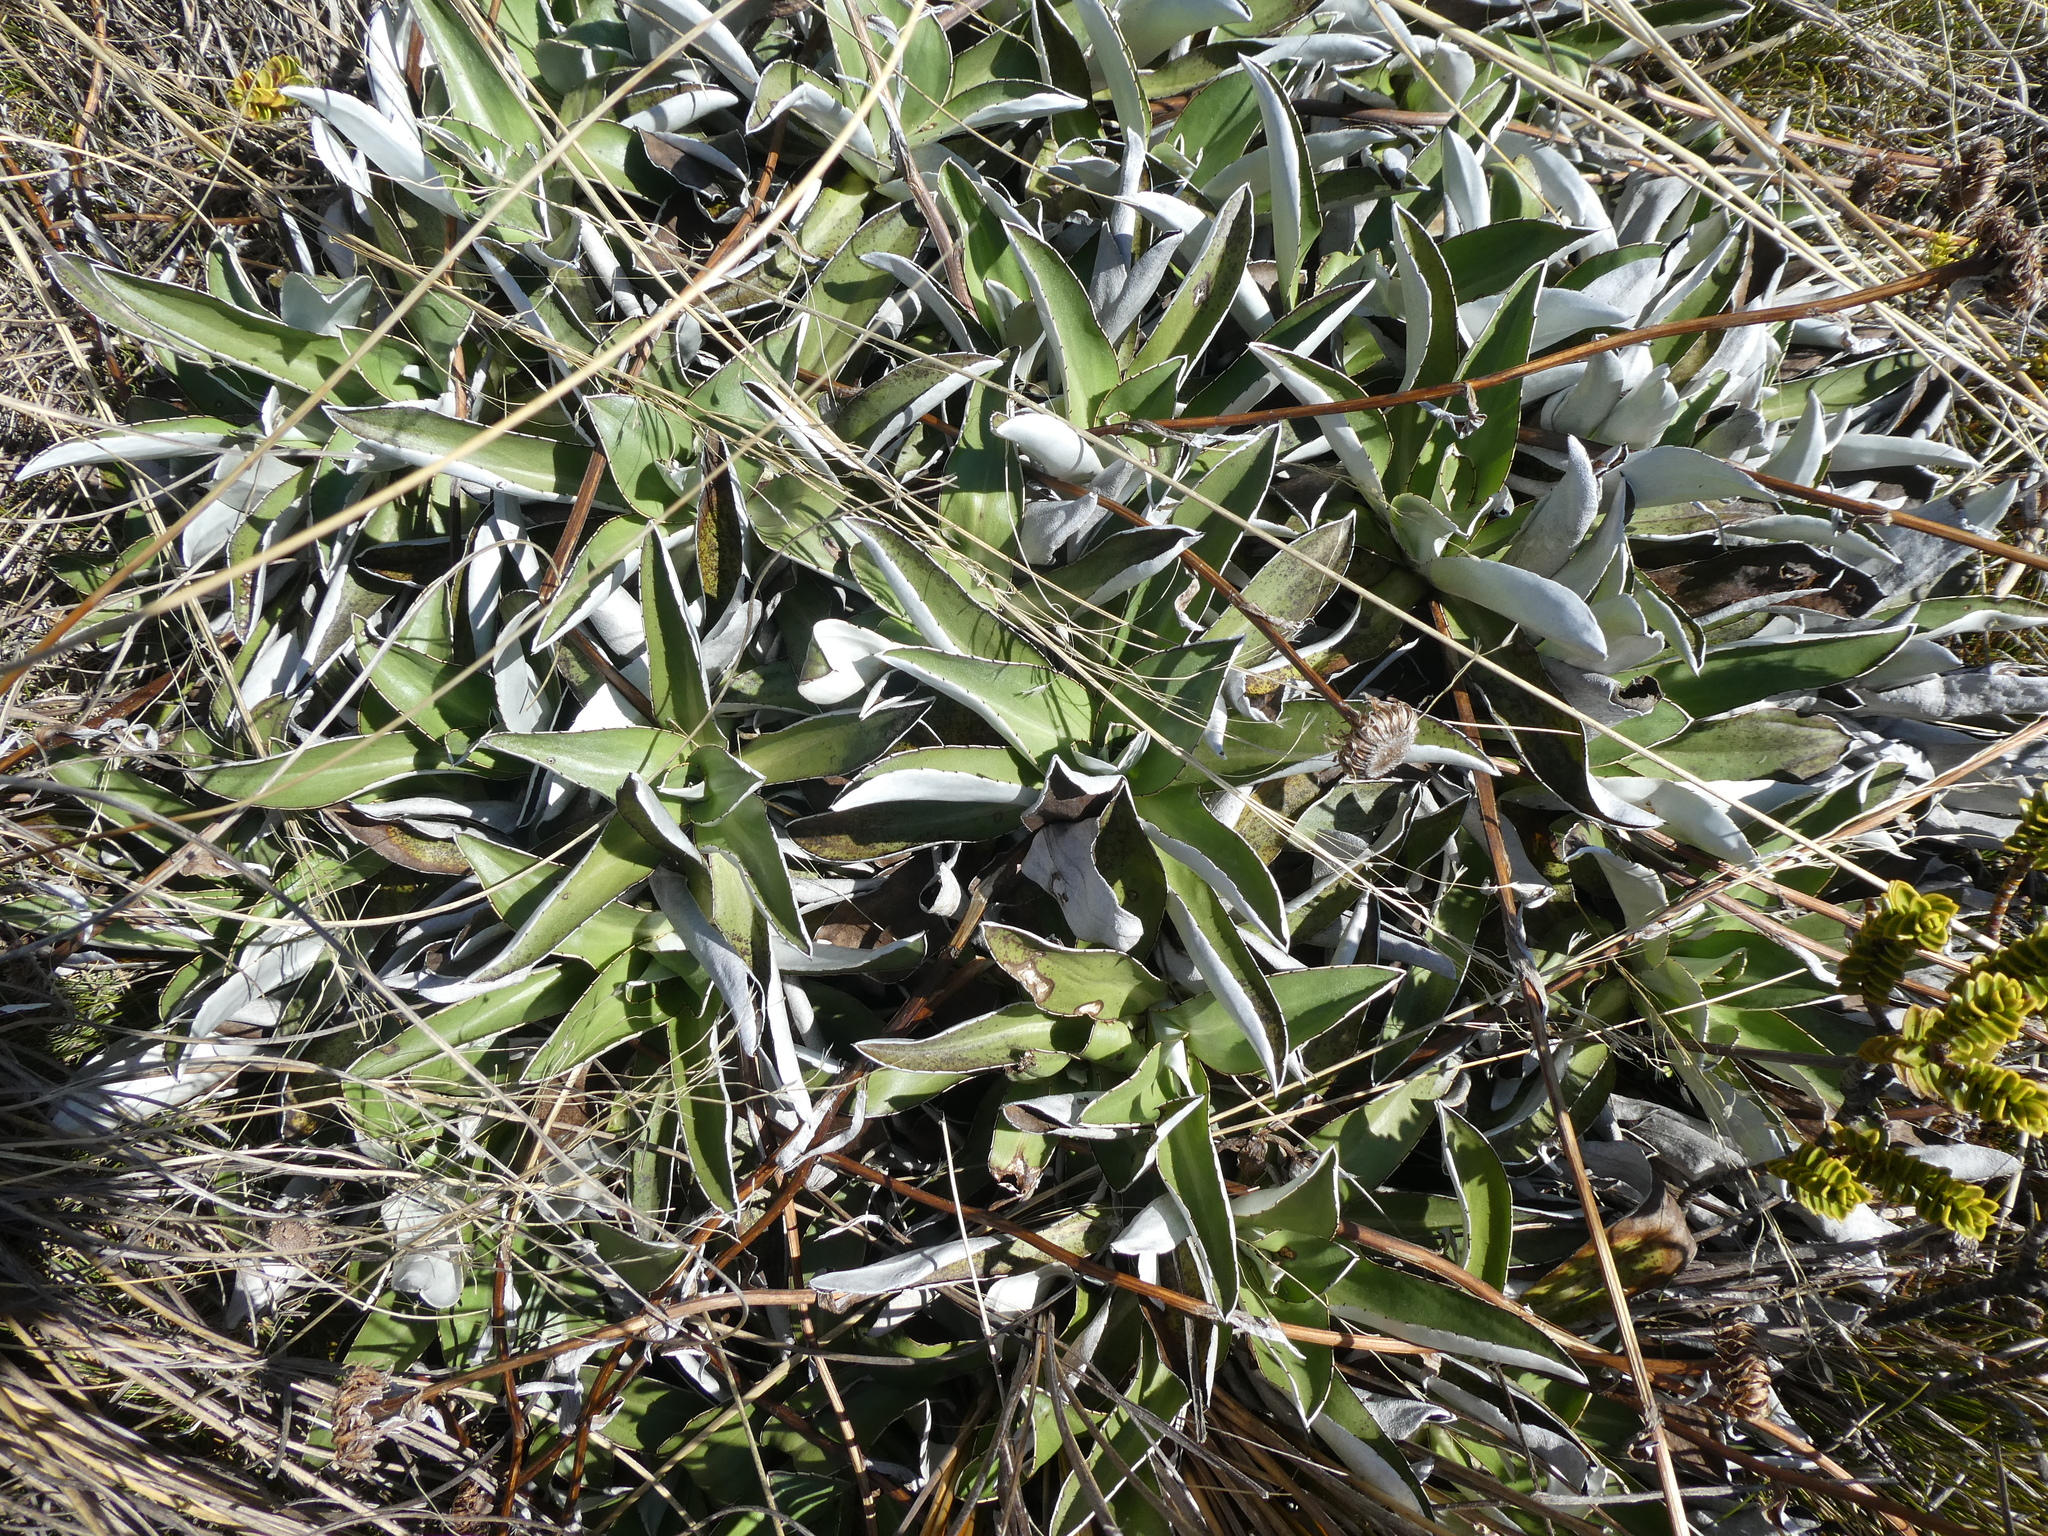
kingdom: Plantae
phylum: Tracheophyta
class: Magnoliopsida
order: Asterales
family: Asteraceae
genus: Celmisia
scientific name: Celmisia dallii
